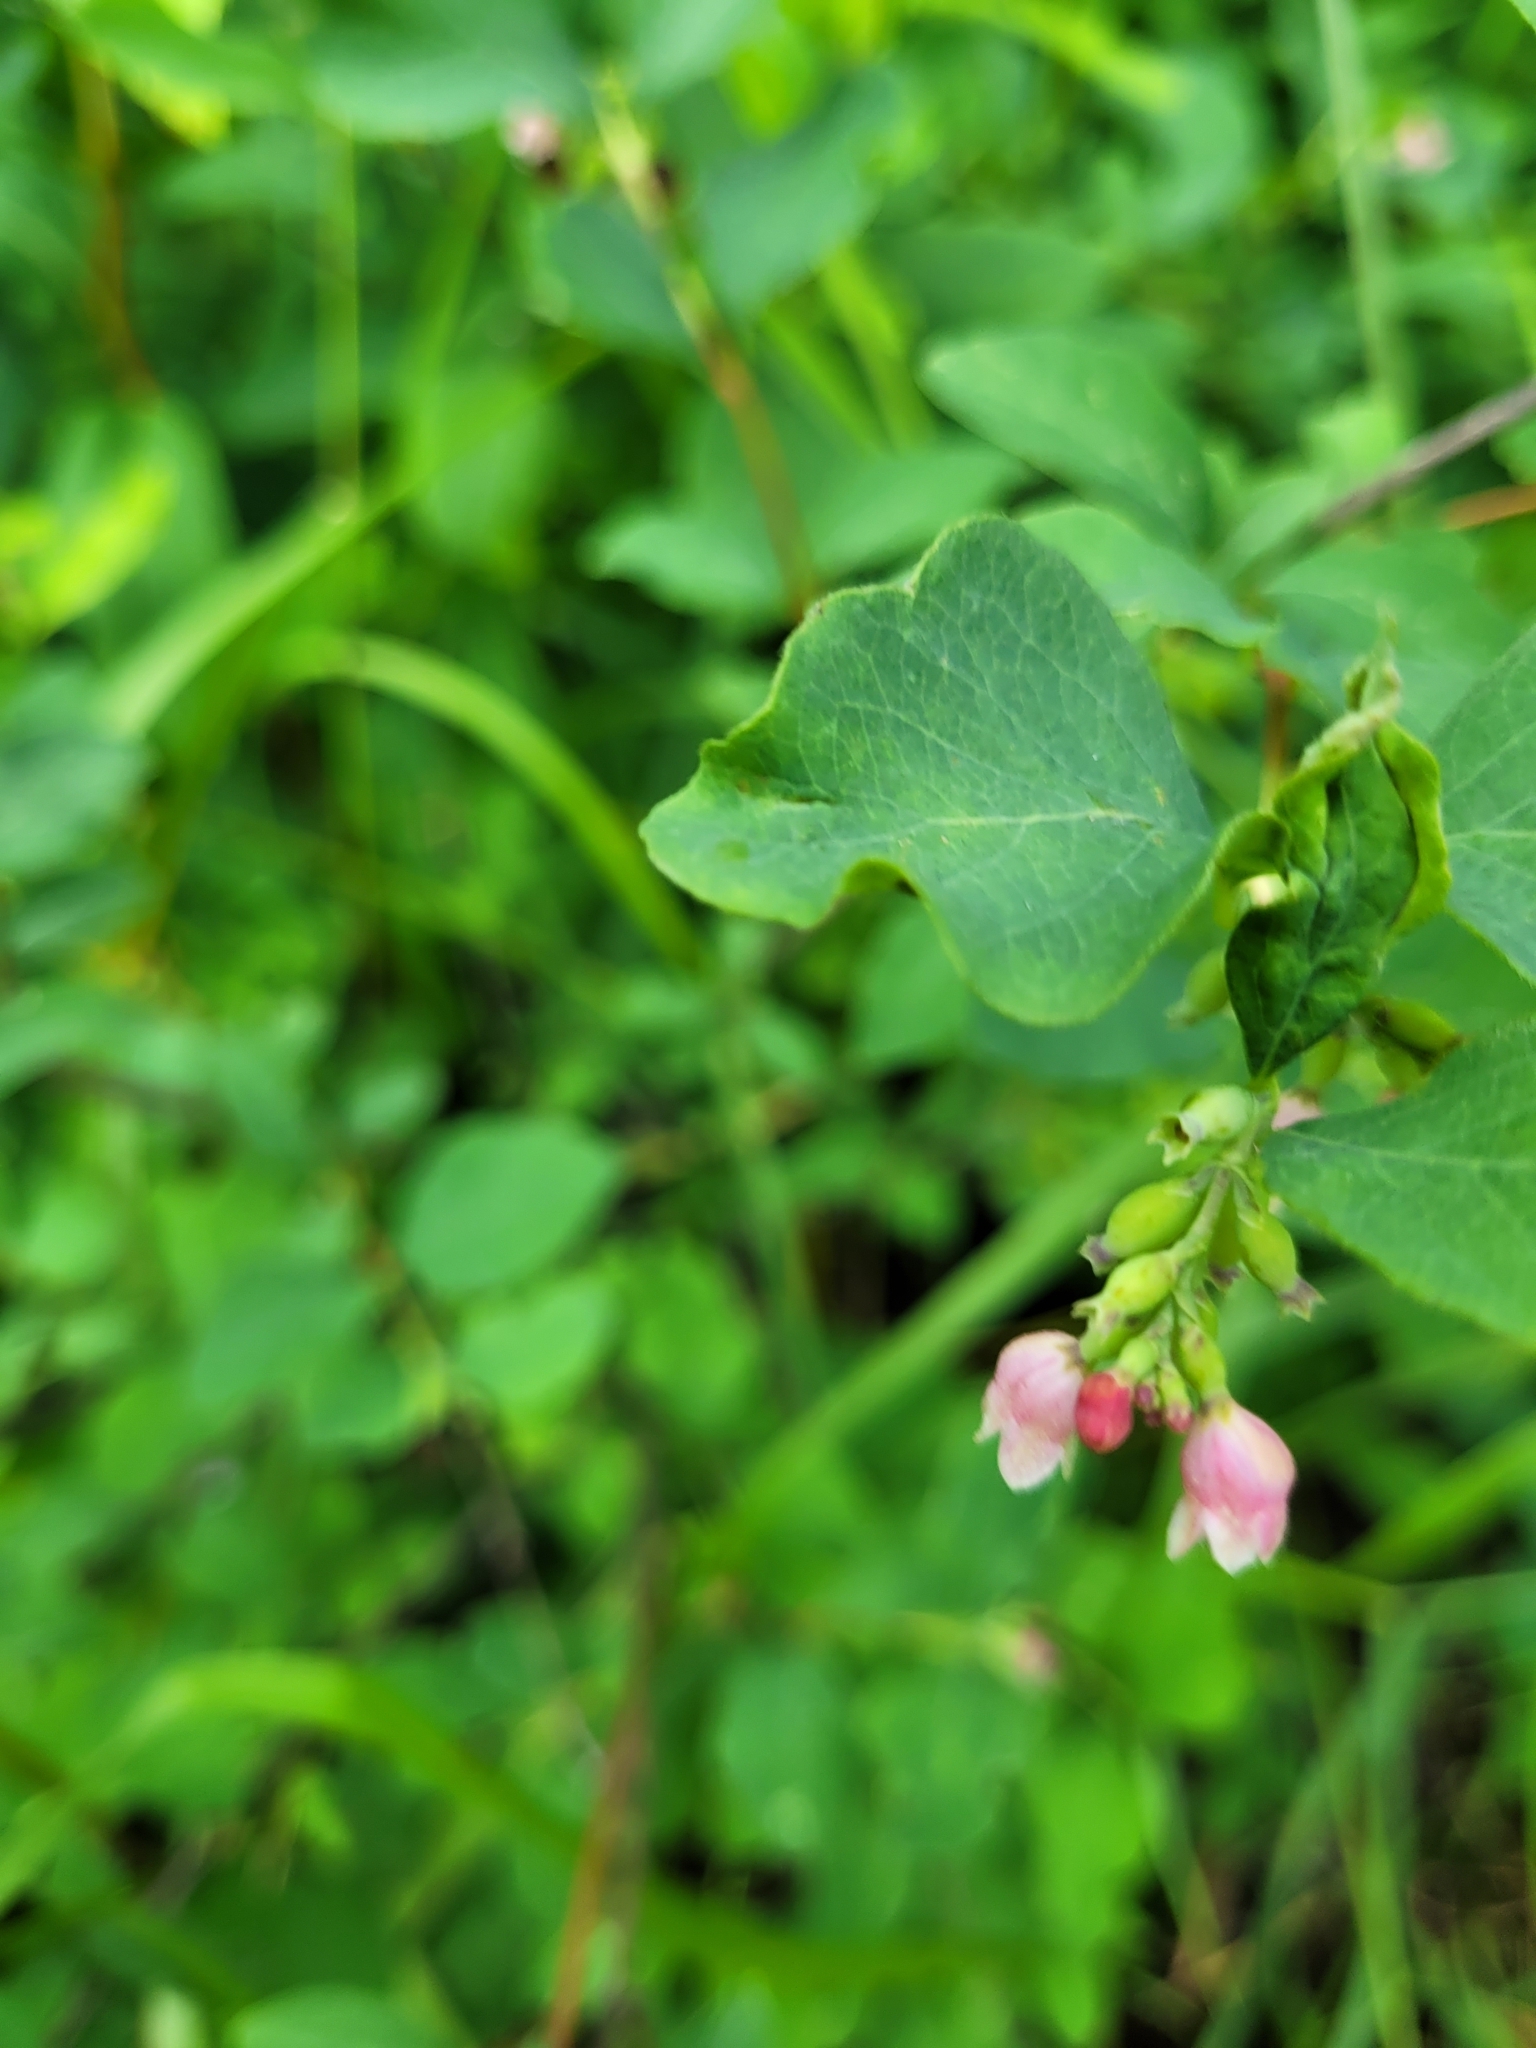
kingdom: Plantae
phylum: Tracheophyta
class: Magnoliopsida
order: Dipsacales
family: Caprifoliaceae
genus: Symphoricarpos
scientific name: Symphoricarpos albus
